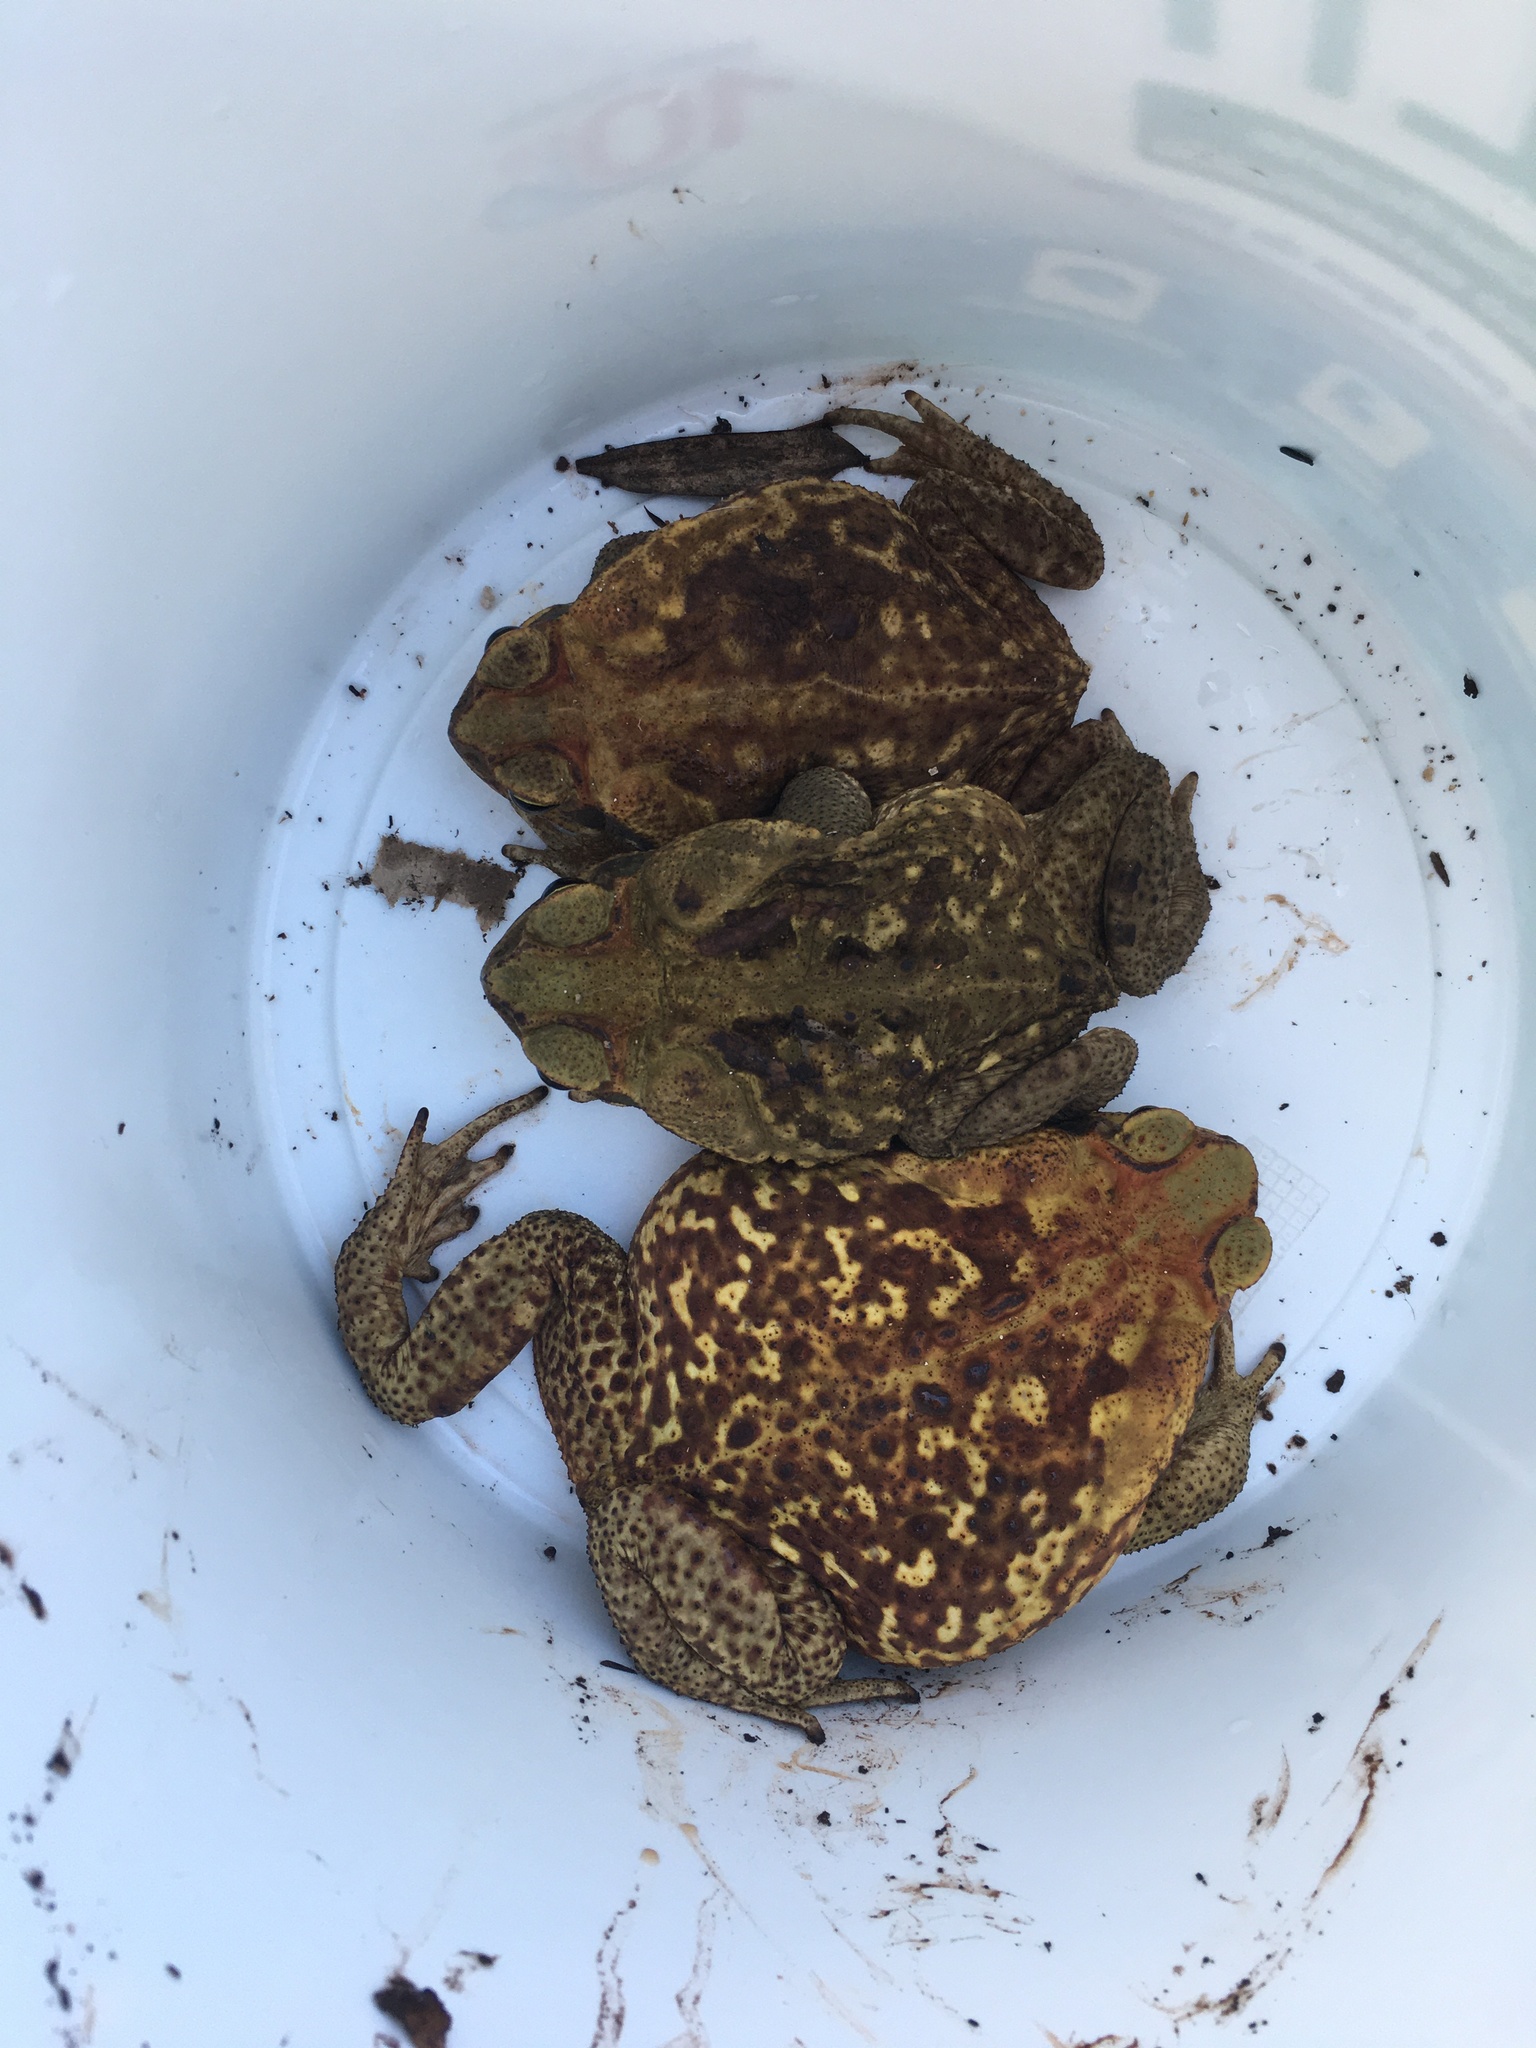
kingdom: Animalia
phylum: Chordata
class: Amphibia
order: Anura
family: Bufonidae
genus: Rhinella
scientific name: Rhinella diptycha
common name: Cope's toad
